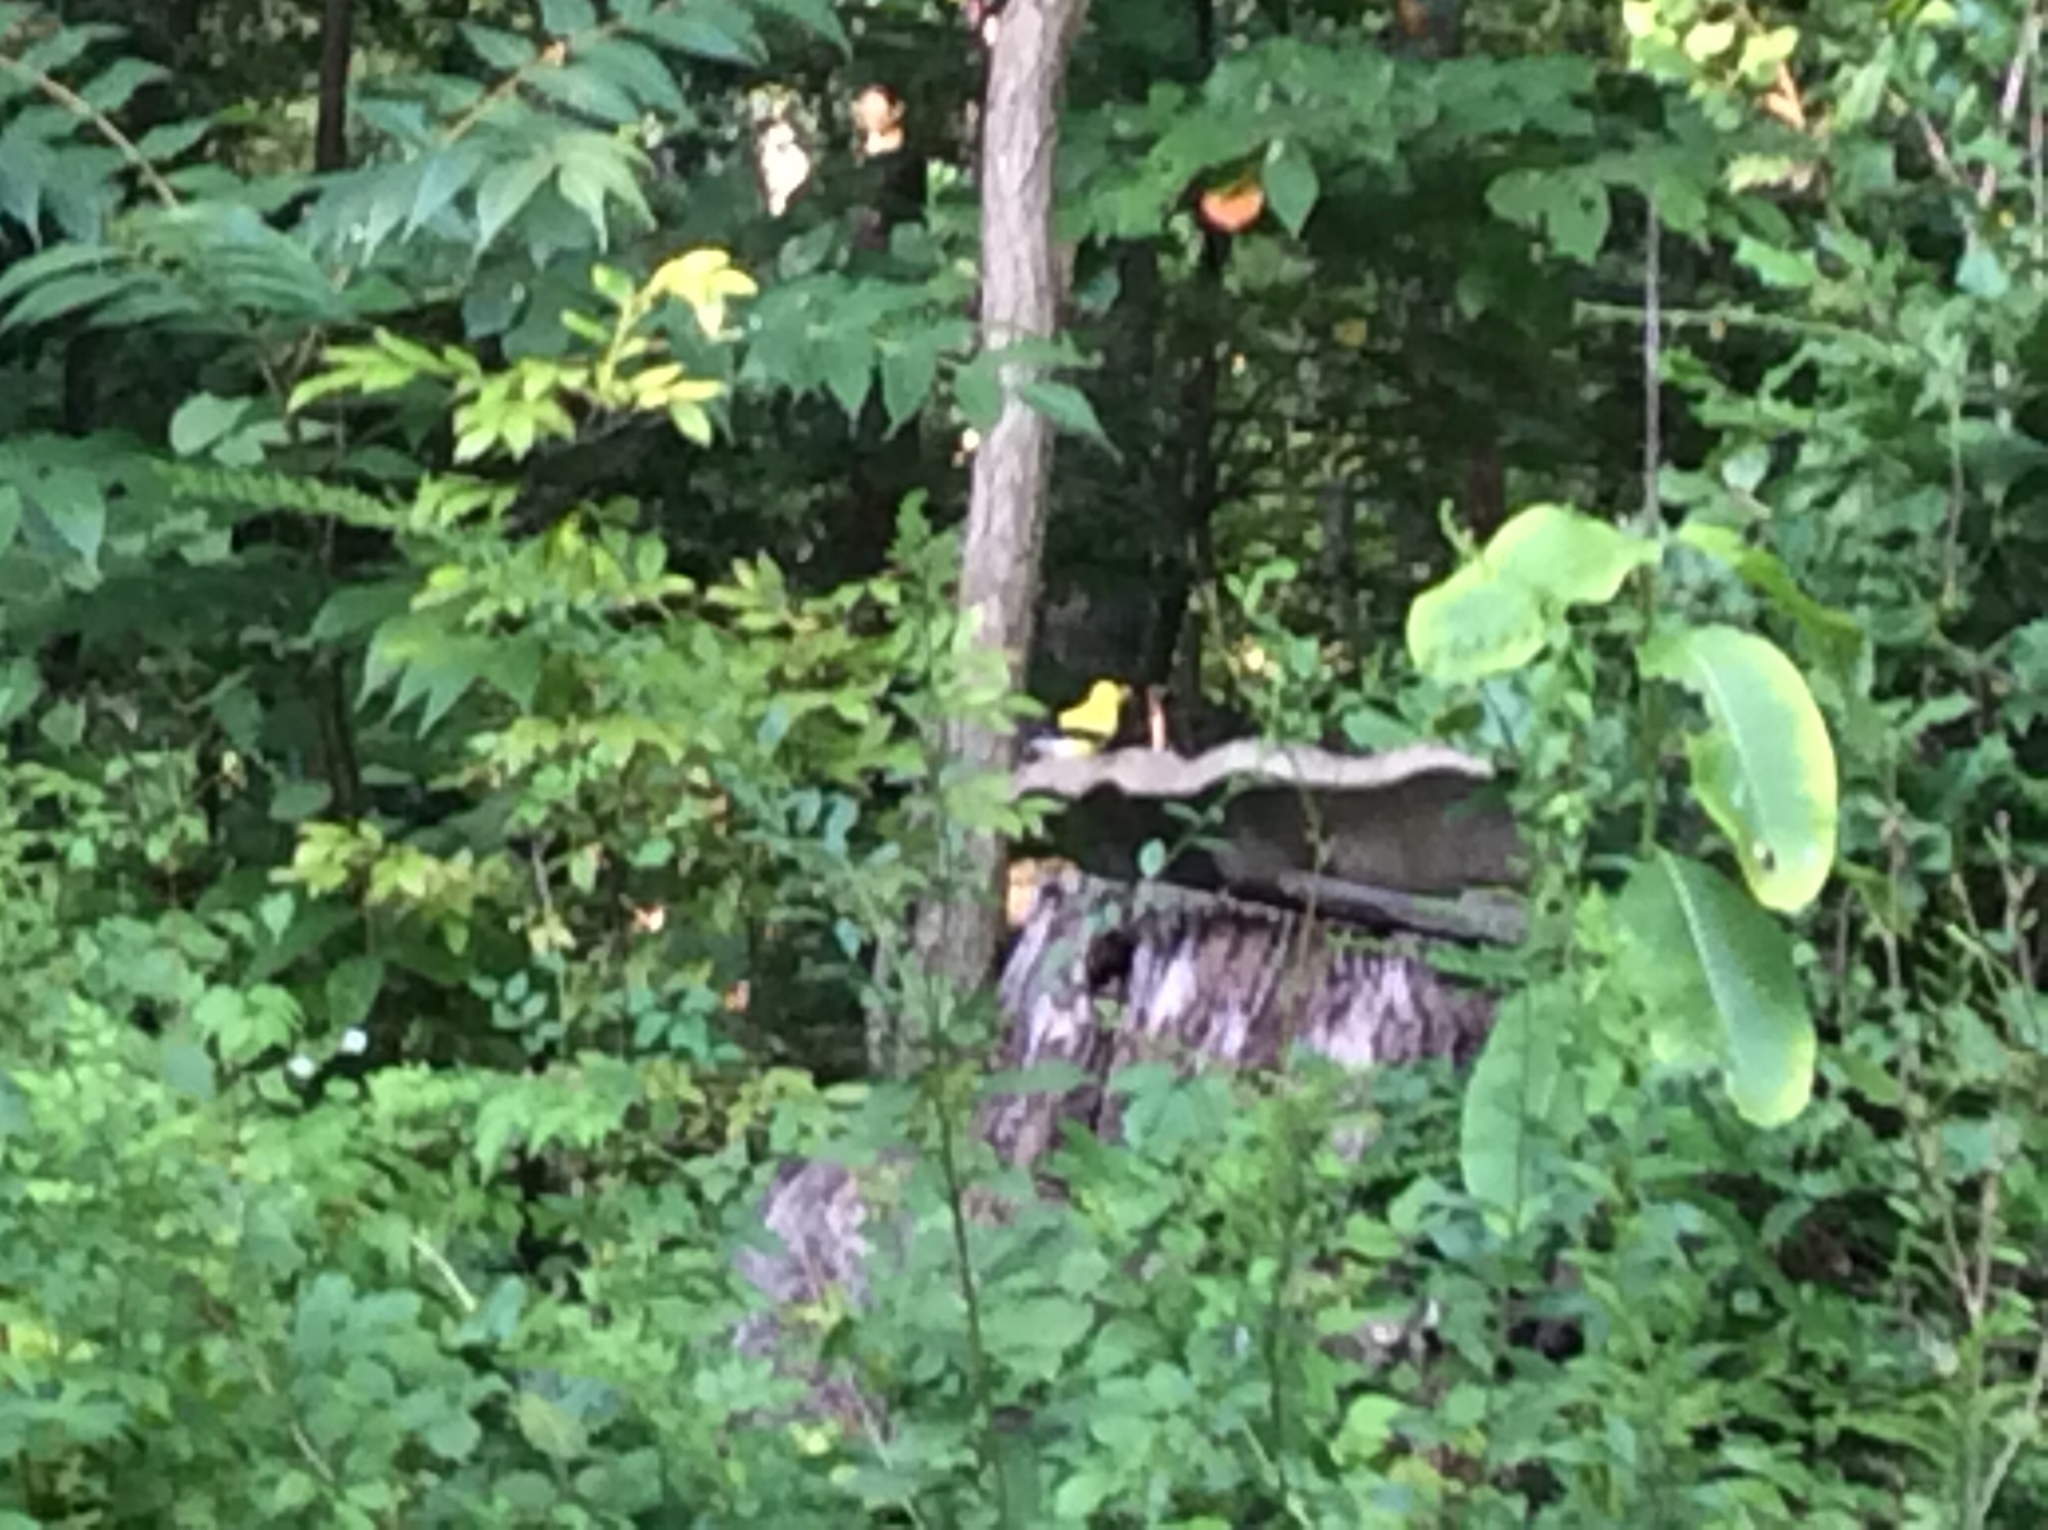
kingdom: Animalia
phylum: Chordata
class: Aves
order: Passeriformes
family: Fringillidae
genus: Spinus
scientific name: Spinus tristis
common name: American goldfinch
